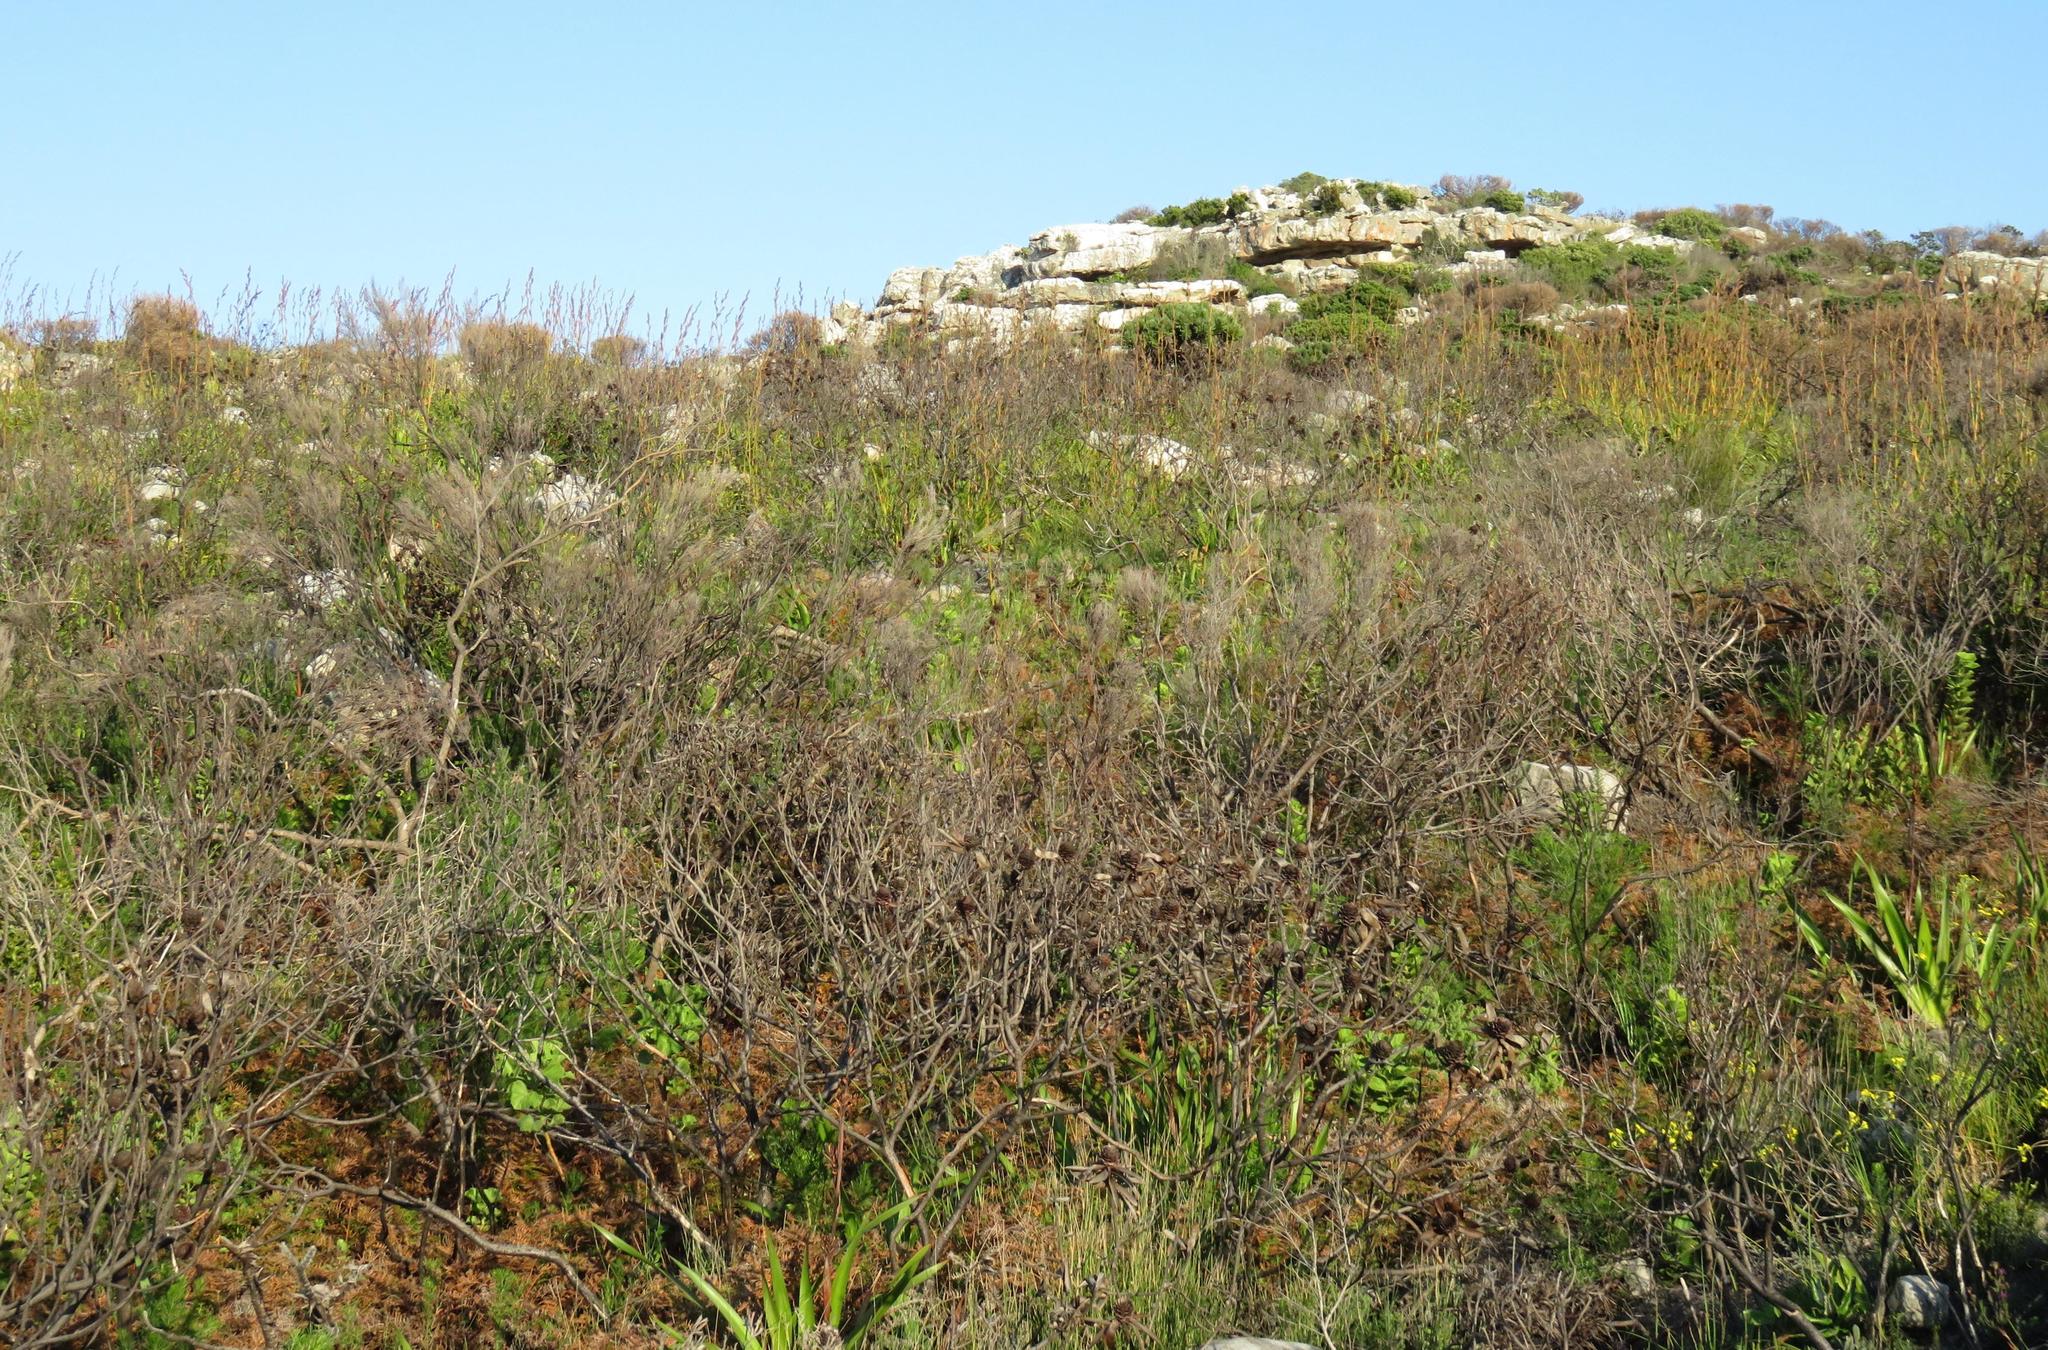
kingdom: Plantae
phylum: Tracheophyta
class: Magnoliopsida
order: Proteales
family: Proteaceae
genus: Leucadendron
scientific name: Leucadendron laureolum
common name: Golden sunshinebush
